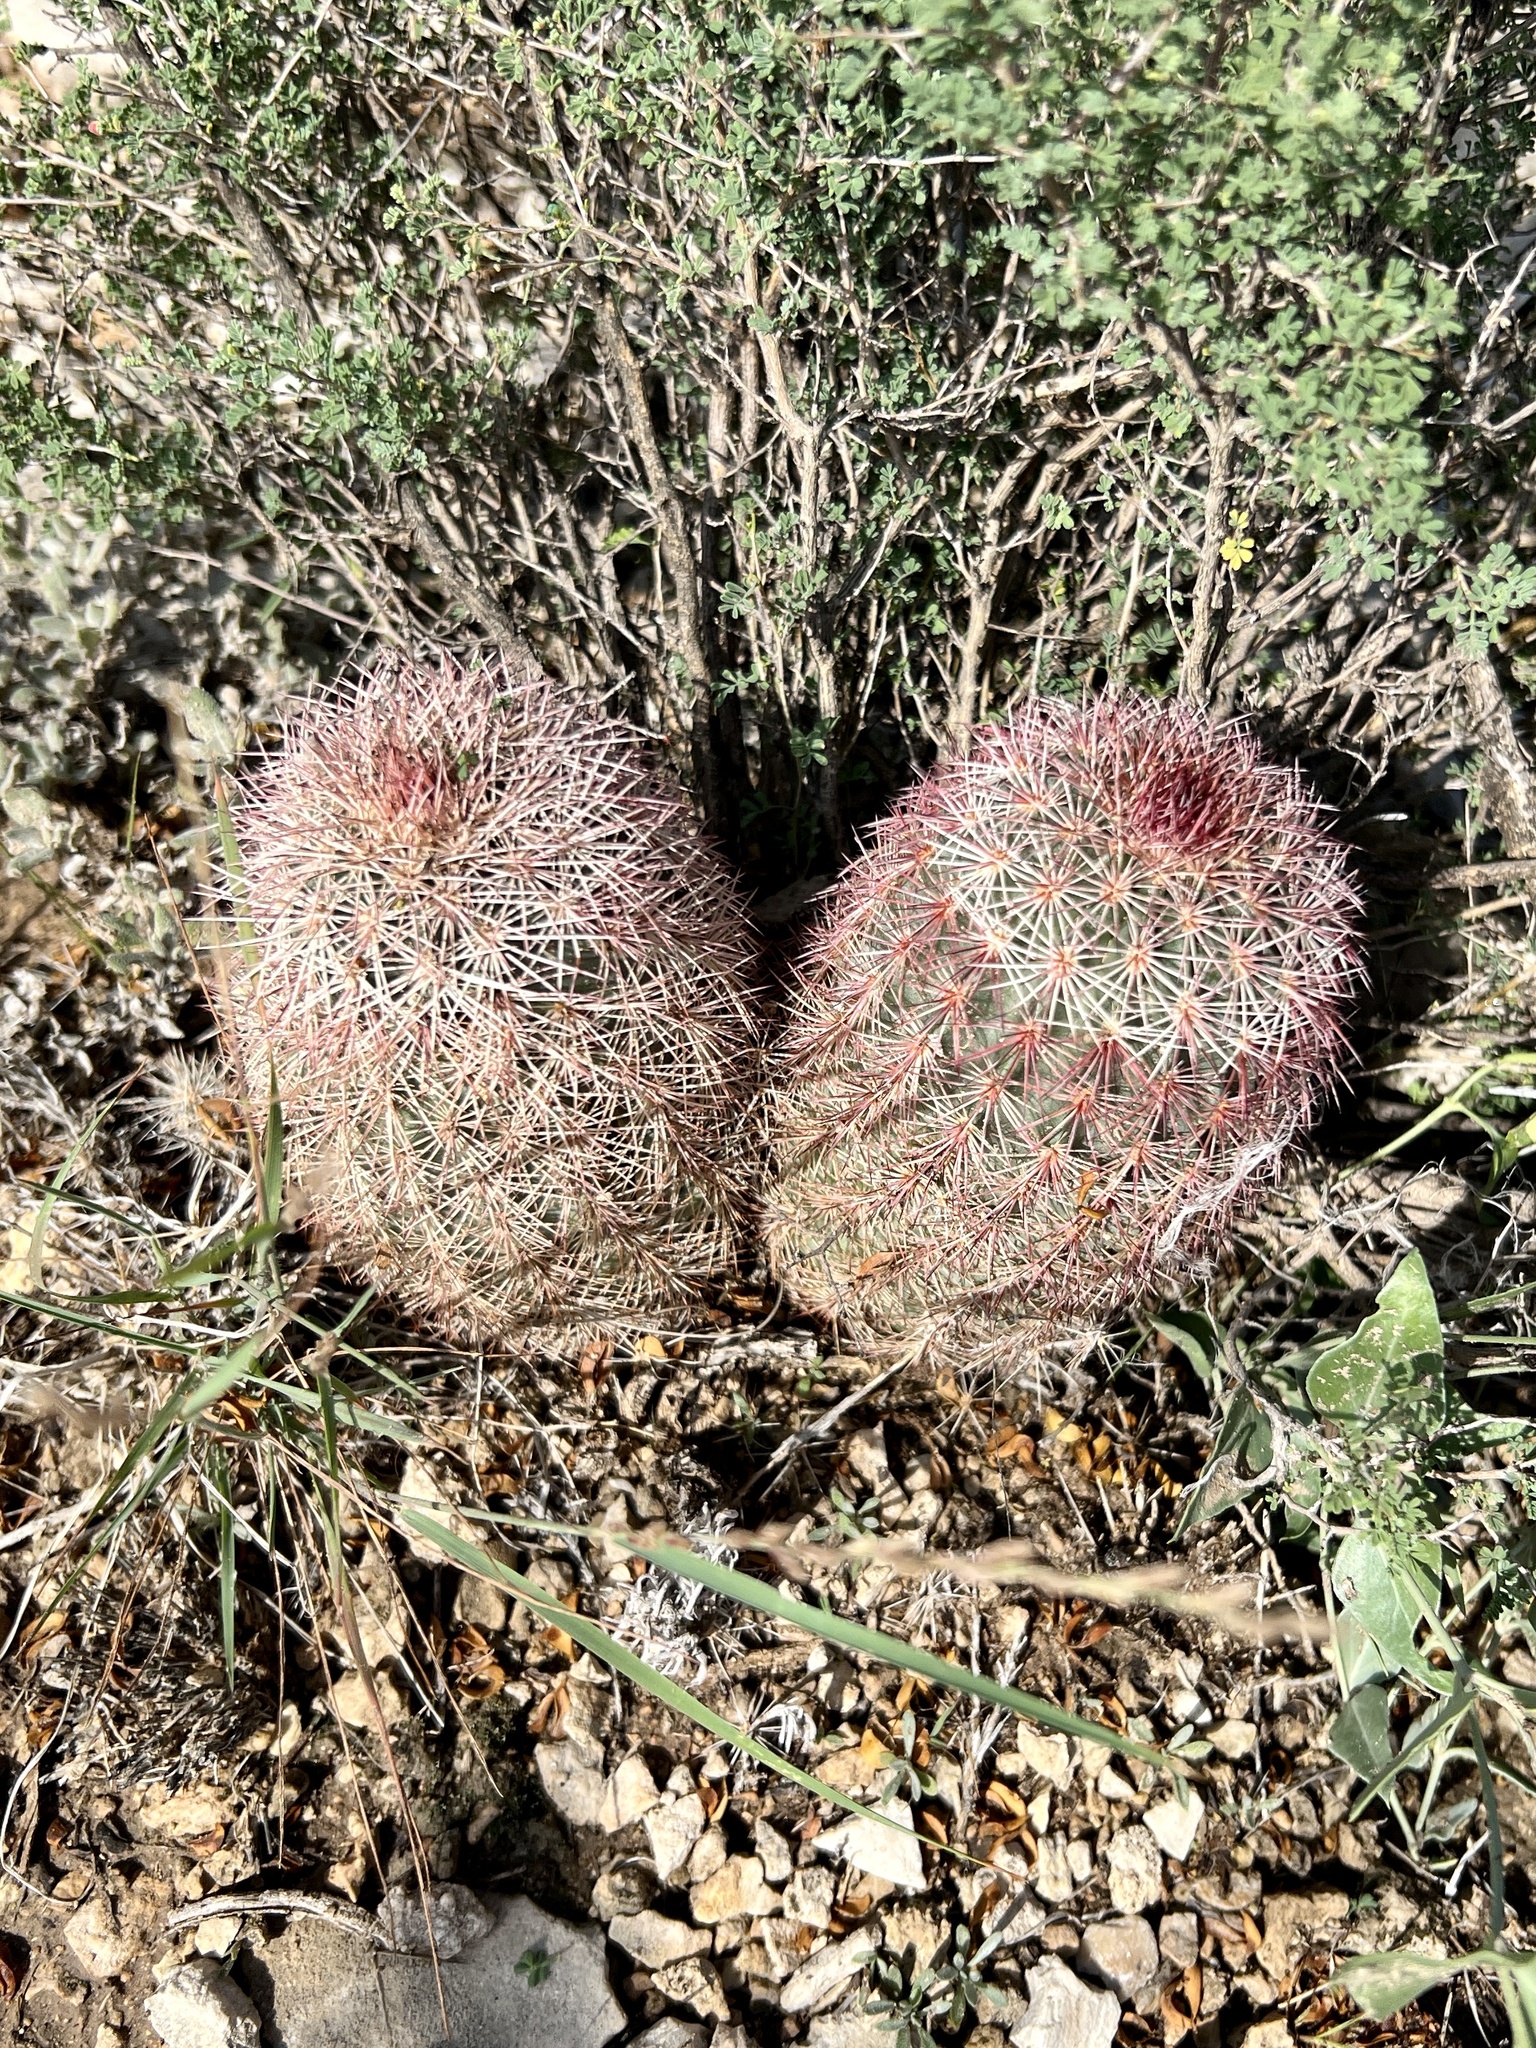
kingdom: Plantae
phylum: Tracheophyta
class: Magnoliopsida
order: Caryophyllales
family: Cactaceae
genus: Echinocereus
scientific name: Echinocereus dasyacanthus
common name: Spiny hedgehog cactus
